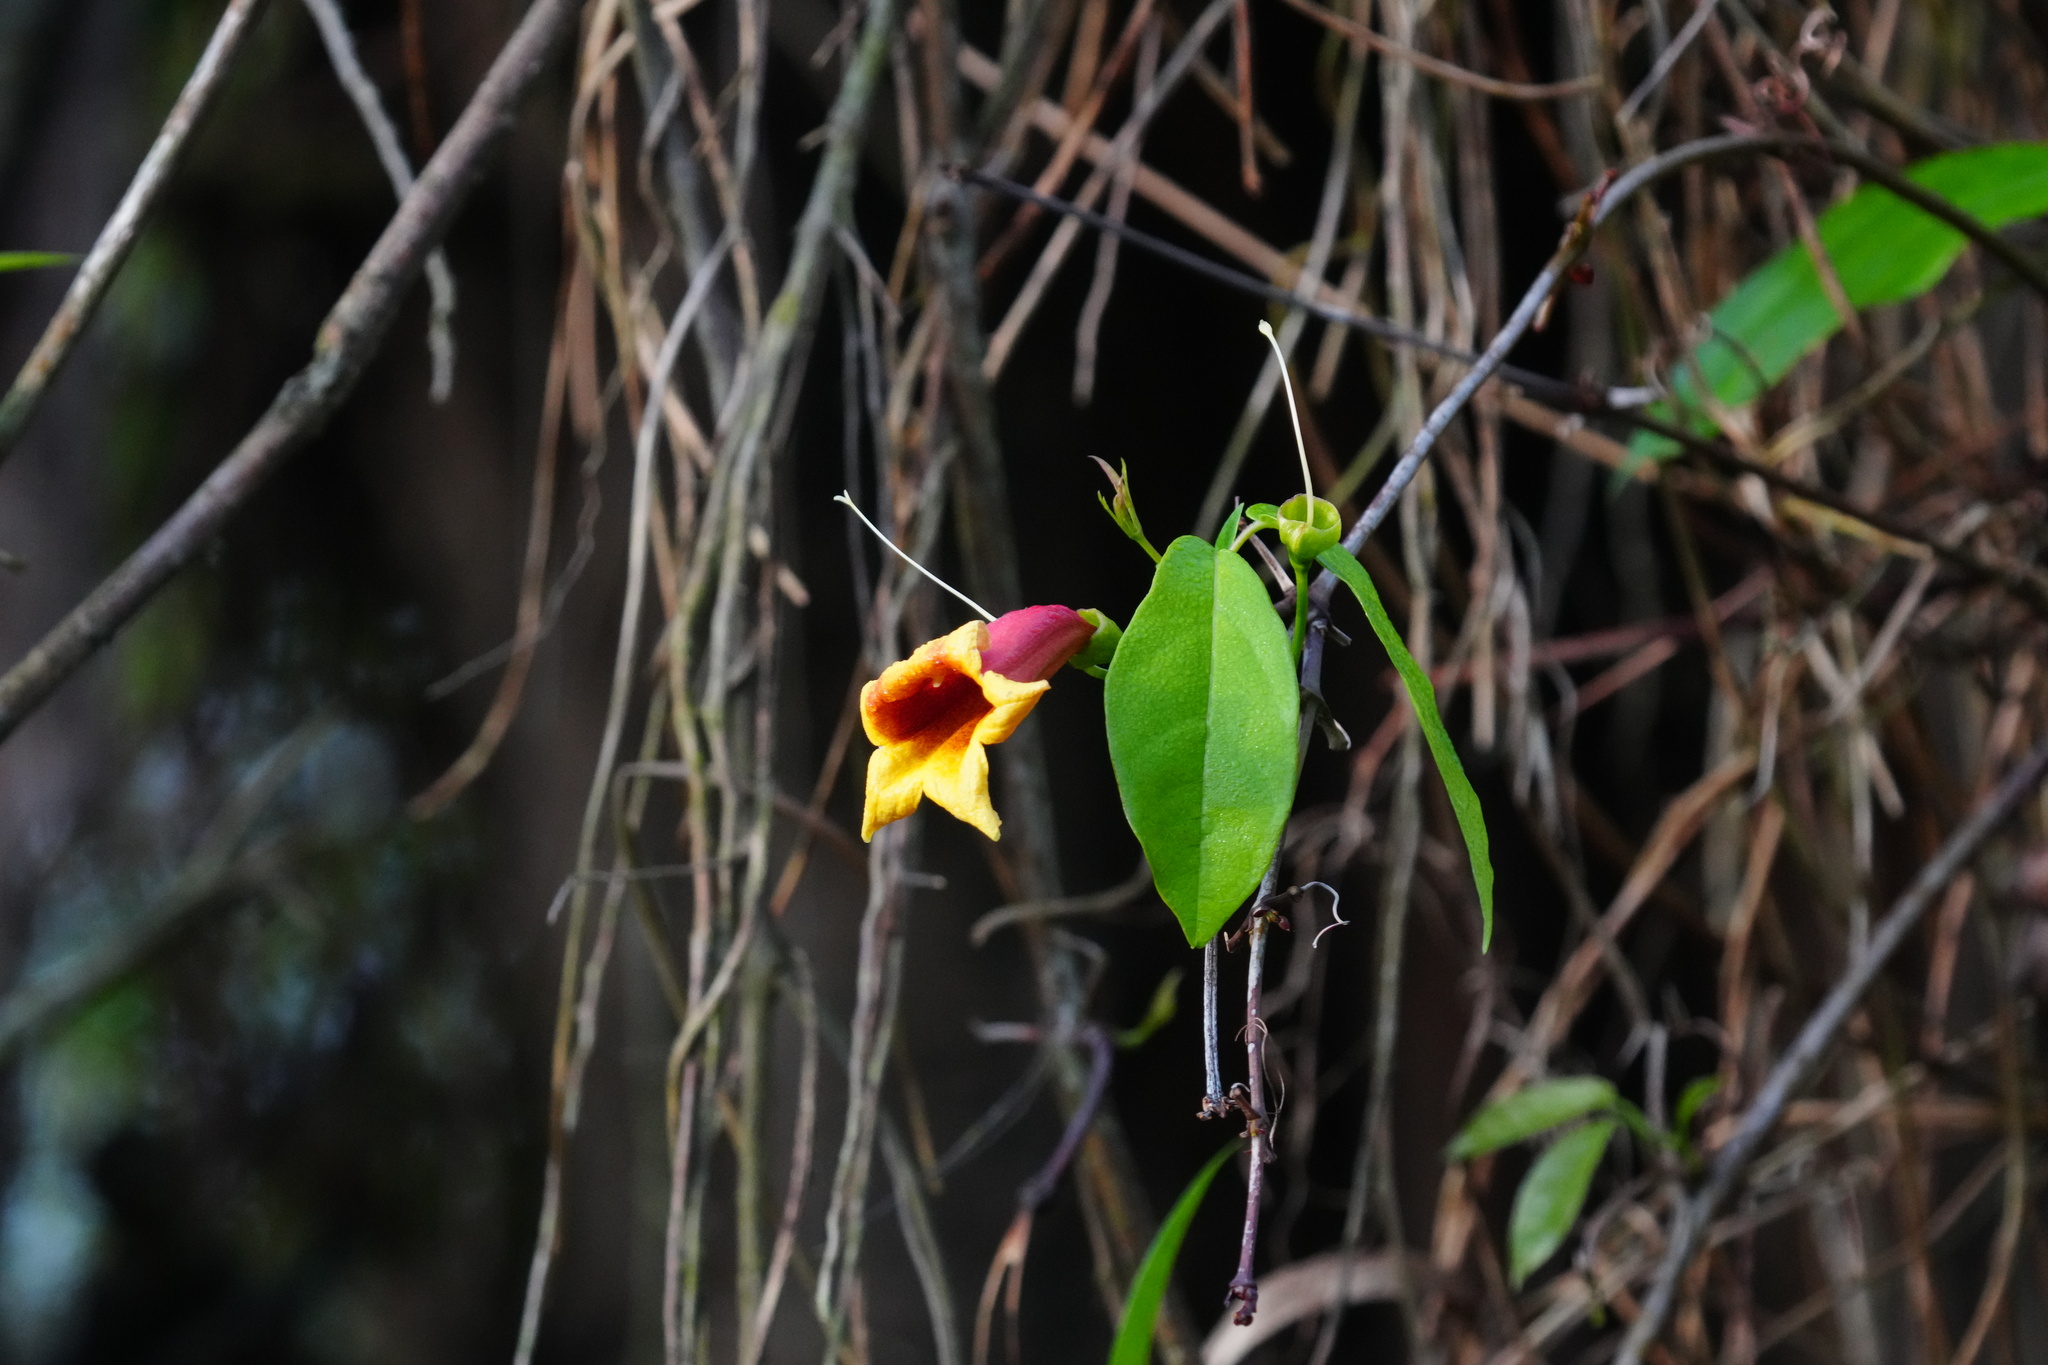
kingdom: Plantae
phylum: Tracheophyta
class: Magnoliopsida
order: Lamiales
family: Bignoniaceae
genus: Bignonia
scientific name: Bignonia capreolata
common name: Crossvine
